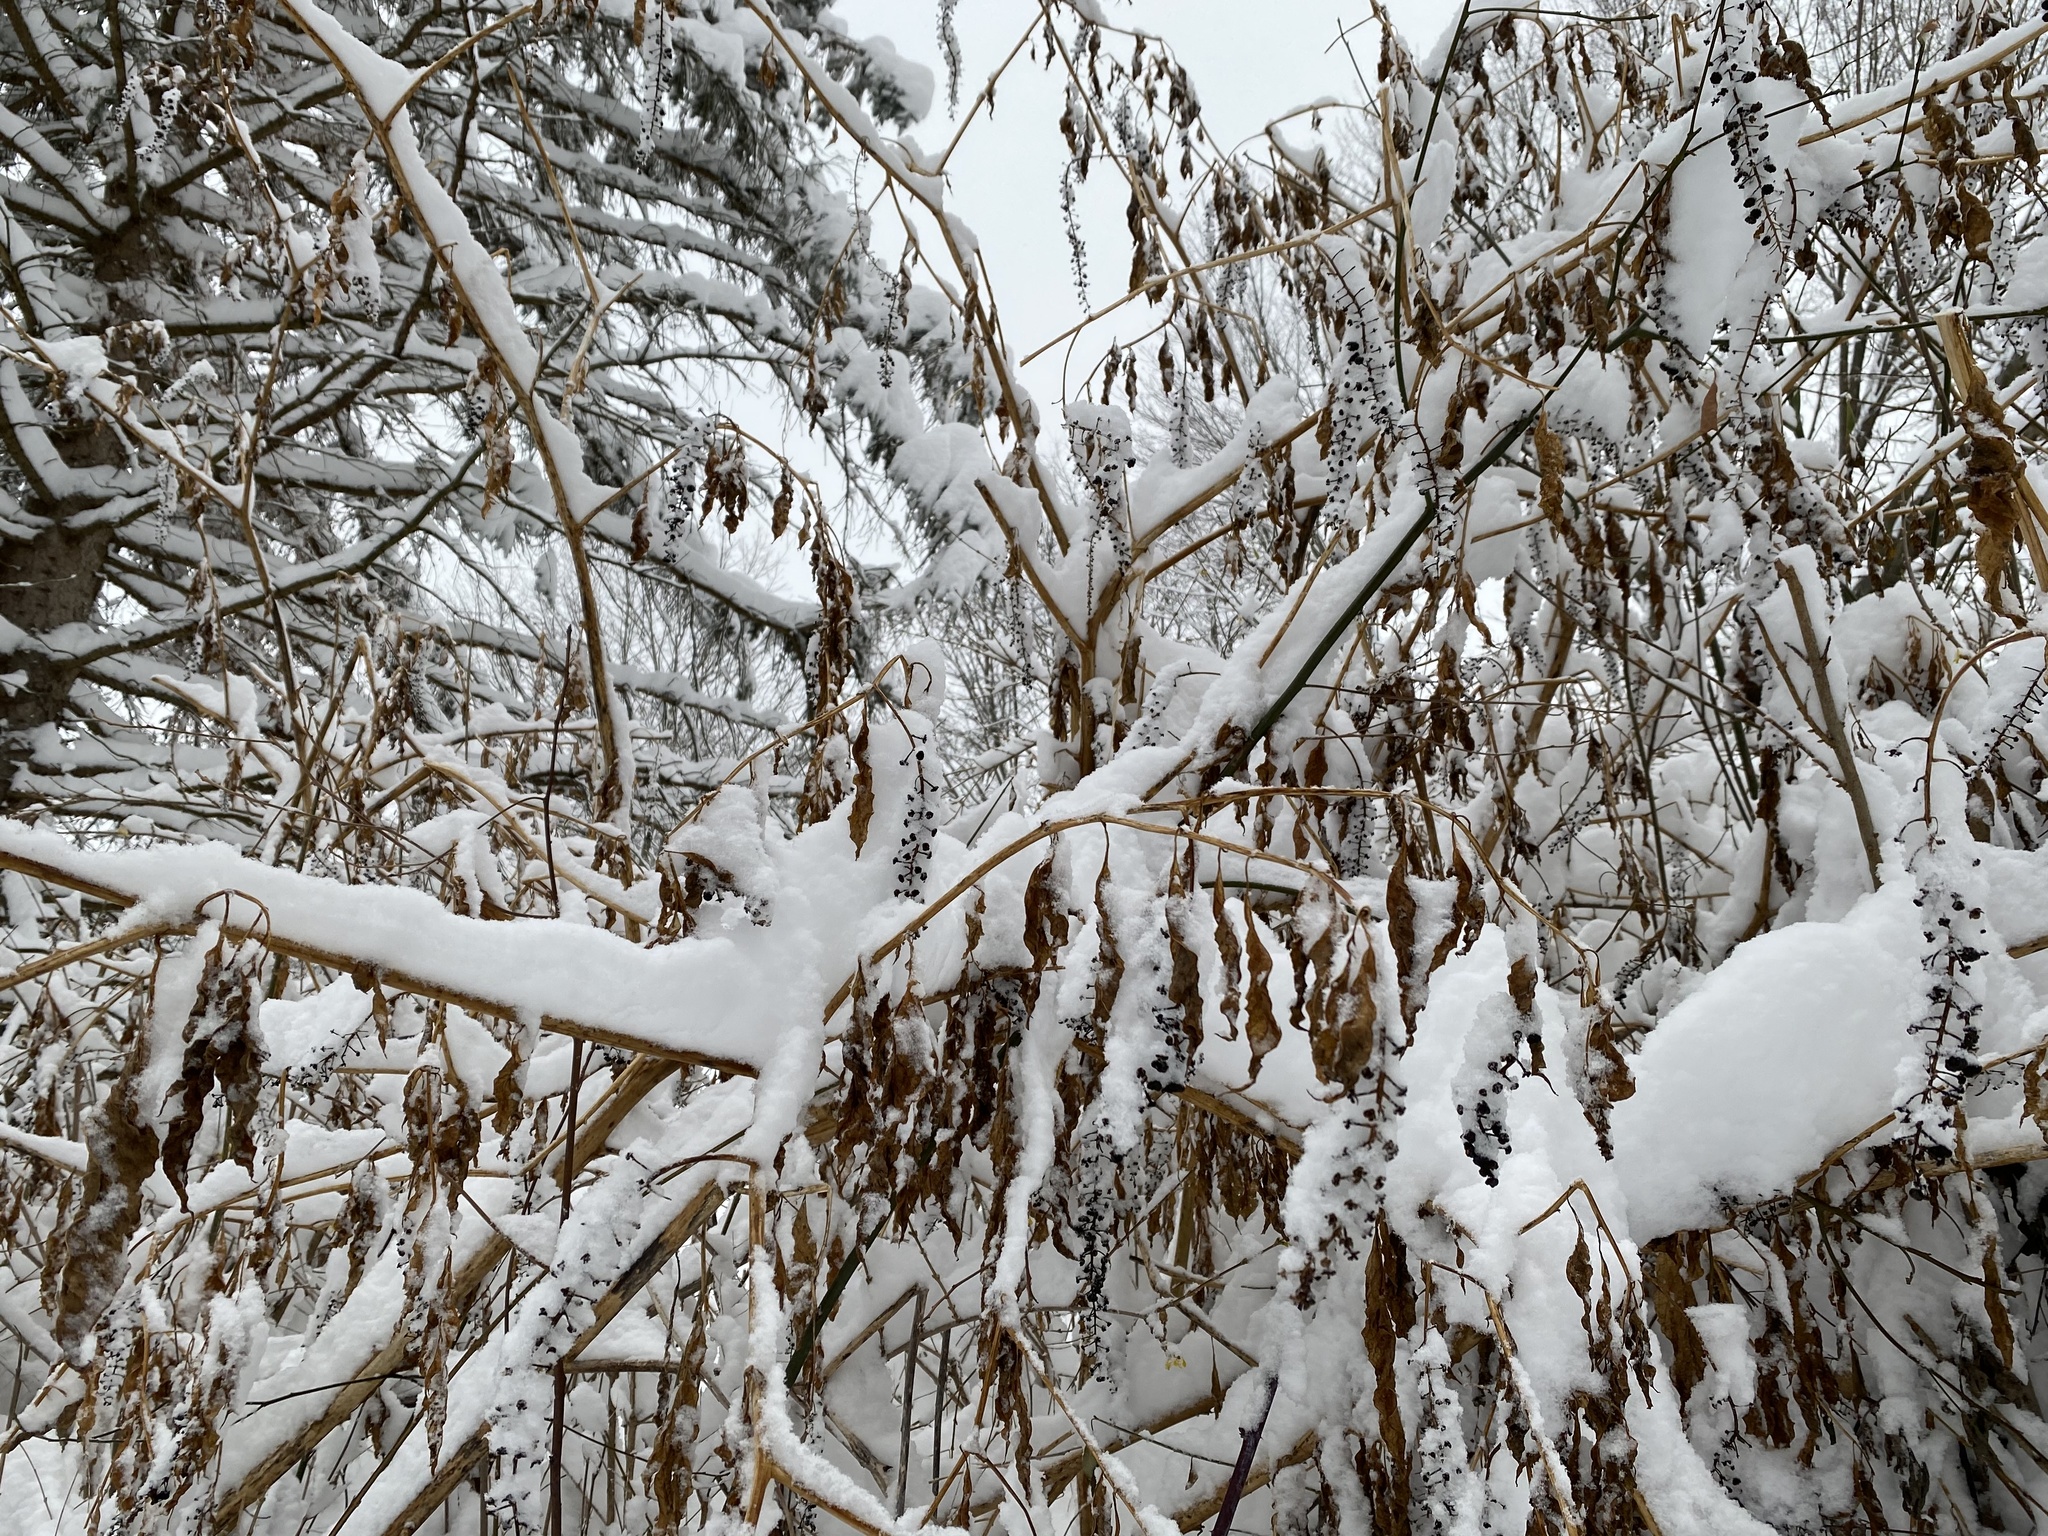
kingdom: Plantae
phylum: Tracheophyta
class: Magnoliopsida
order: Caryophyllales
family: Phytolaccaceae
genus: Phytolacca
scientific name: Phytolacca americana
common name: American pokeweed
